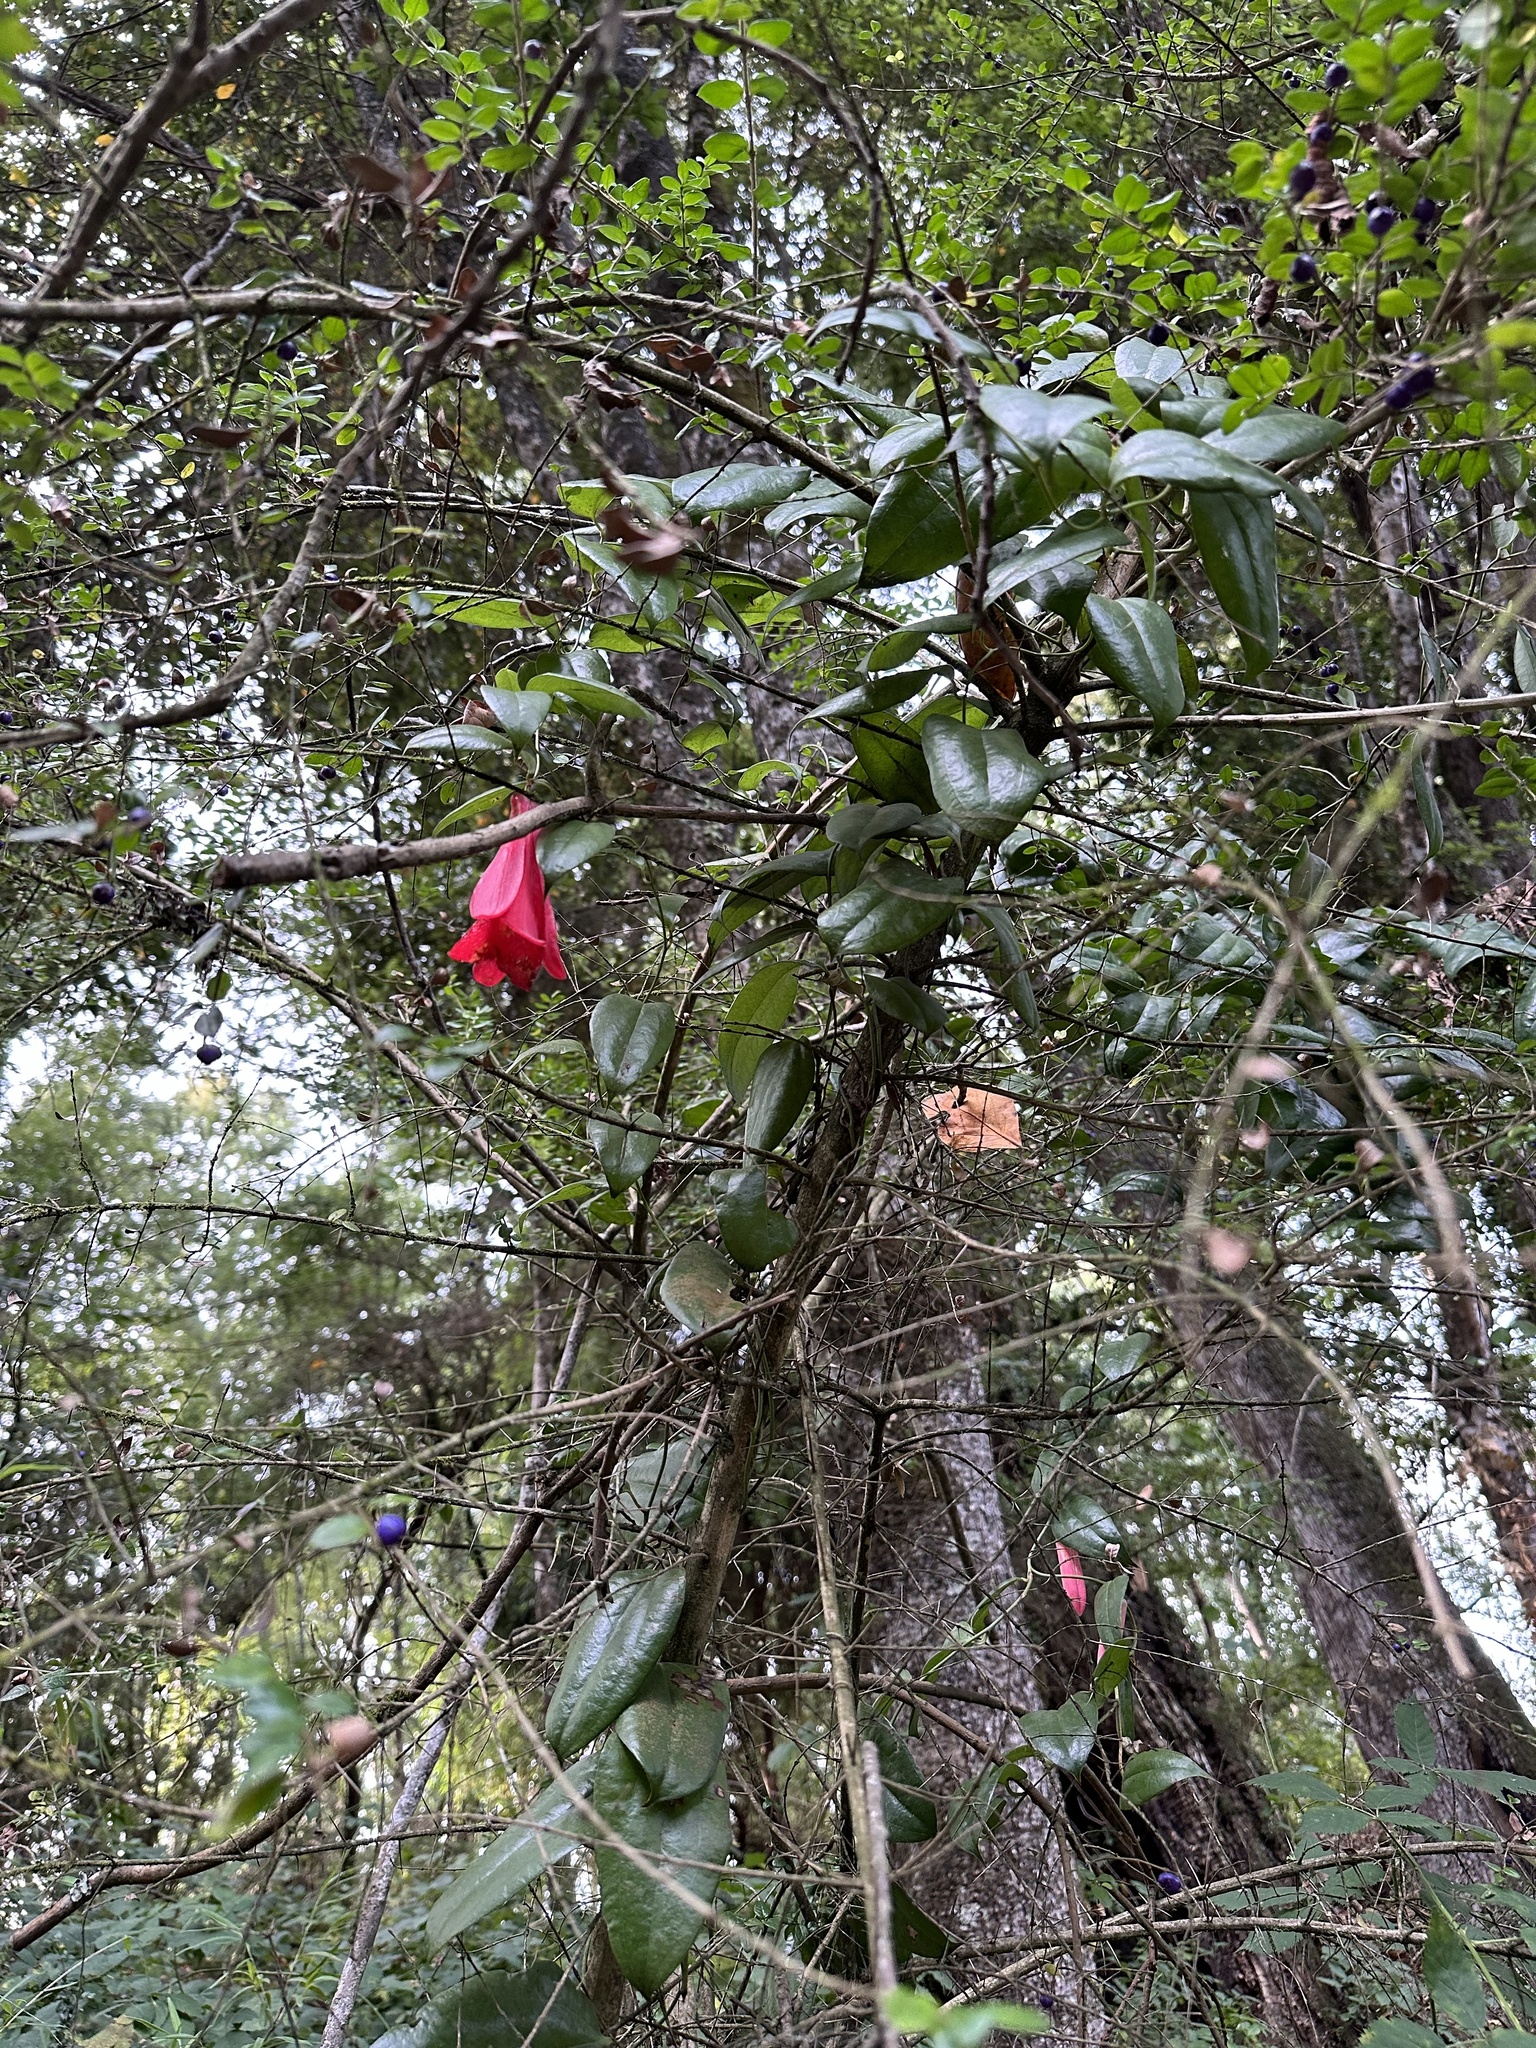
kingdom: Plantae
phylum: Tracheophyta
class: Liliopsida
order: Liliales
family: Philesiaceae
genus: Lapageria
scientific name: Lapageria rosea
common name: Chilean-bellflower
